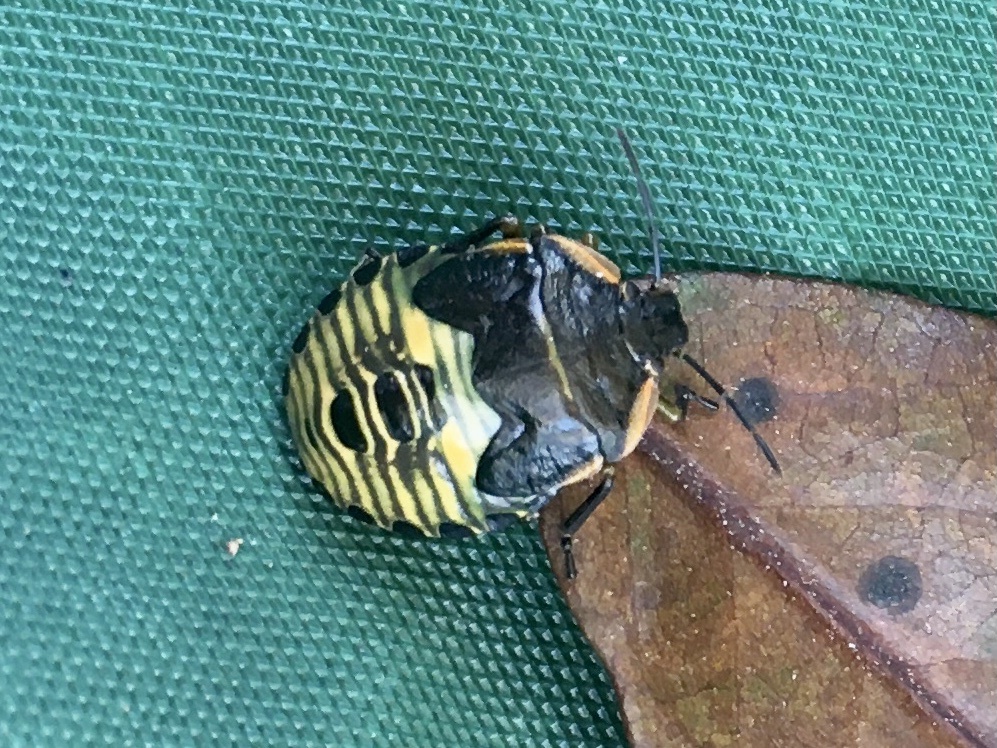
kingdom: Animalia
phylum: Arthropoda
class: Insecta
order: Hemiptera
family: Pentatomidae
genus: Chinavia
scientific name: Chinavia hilaris
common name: Green stink bug
